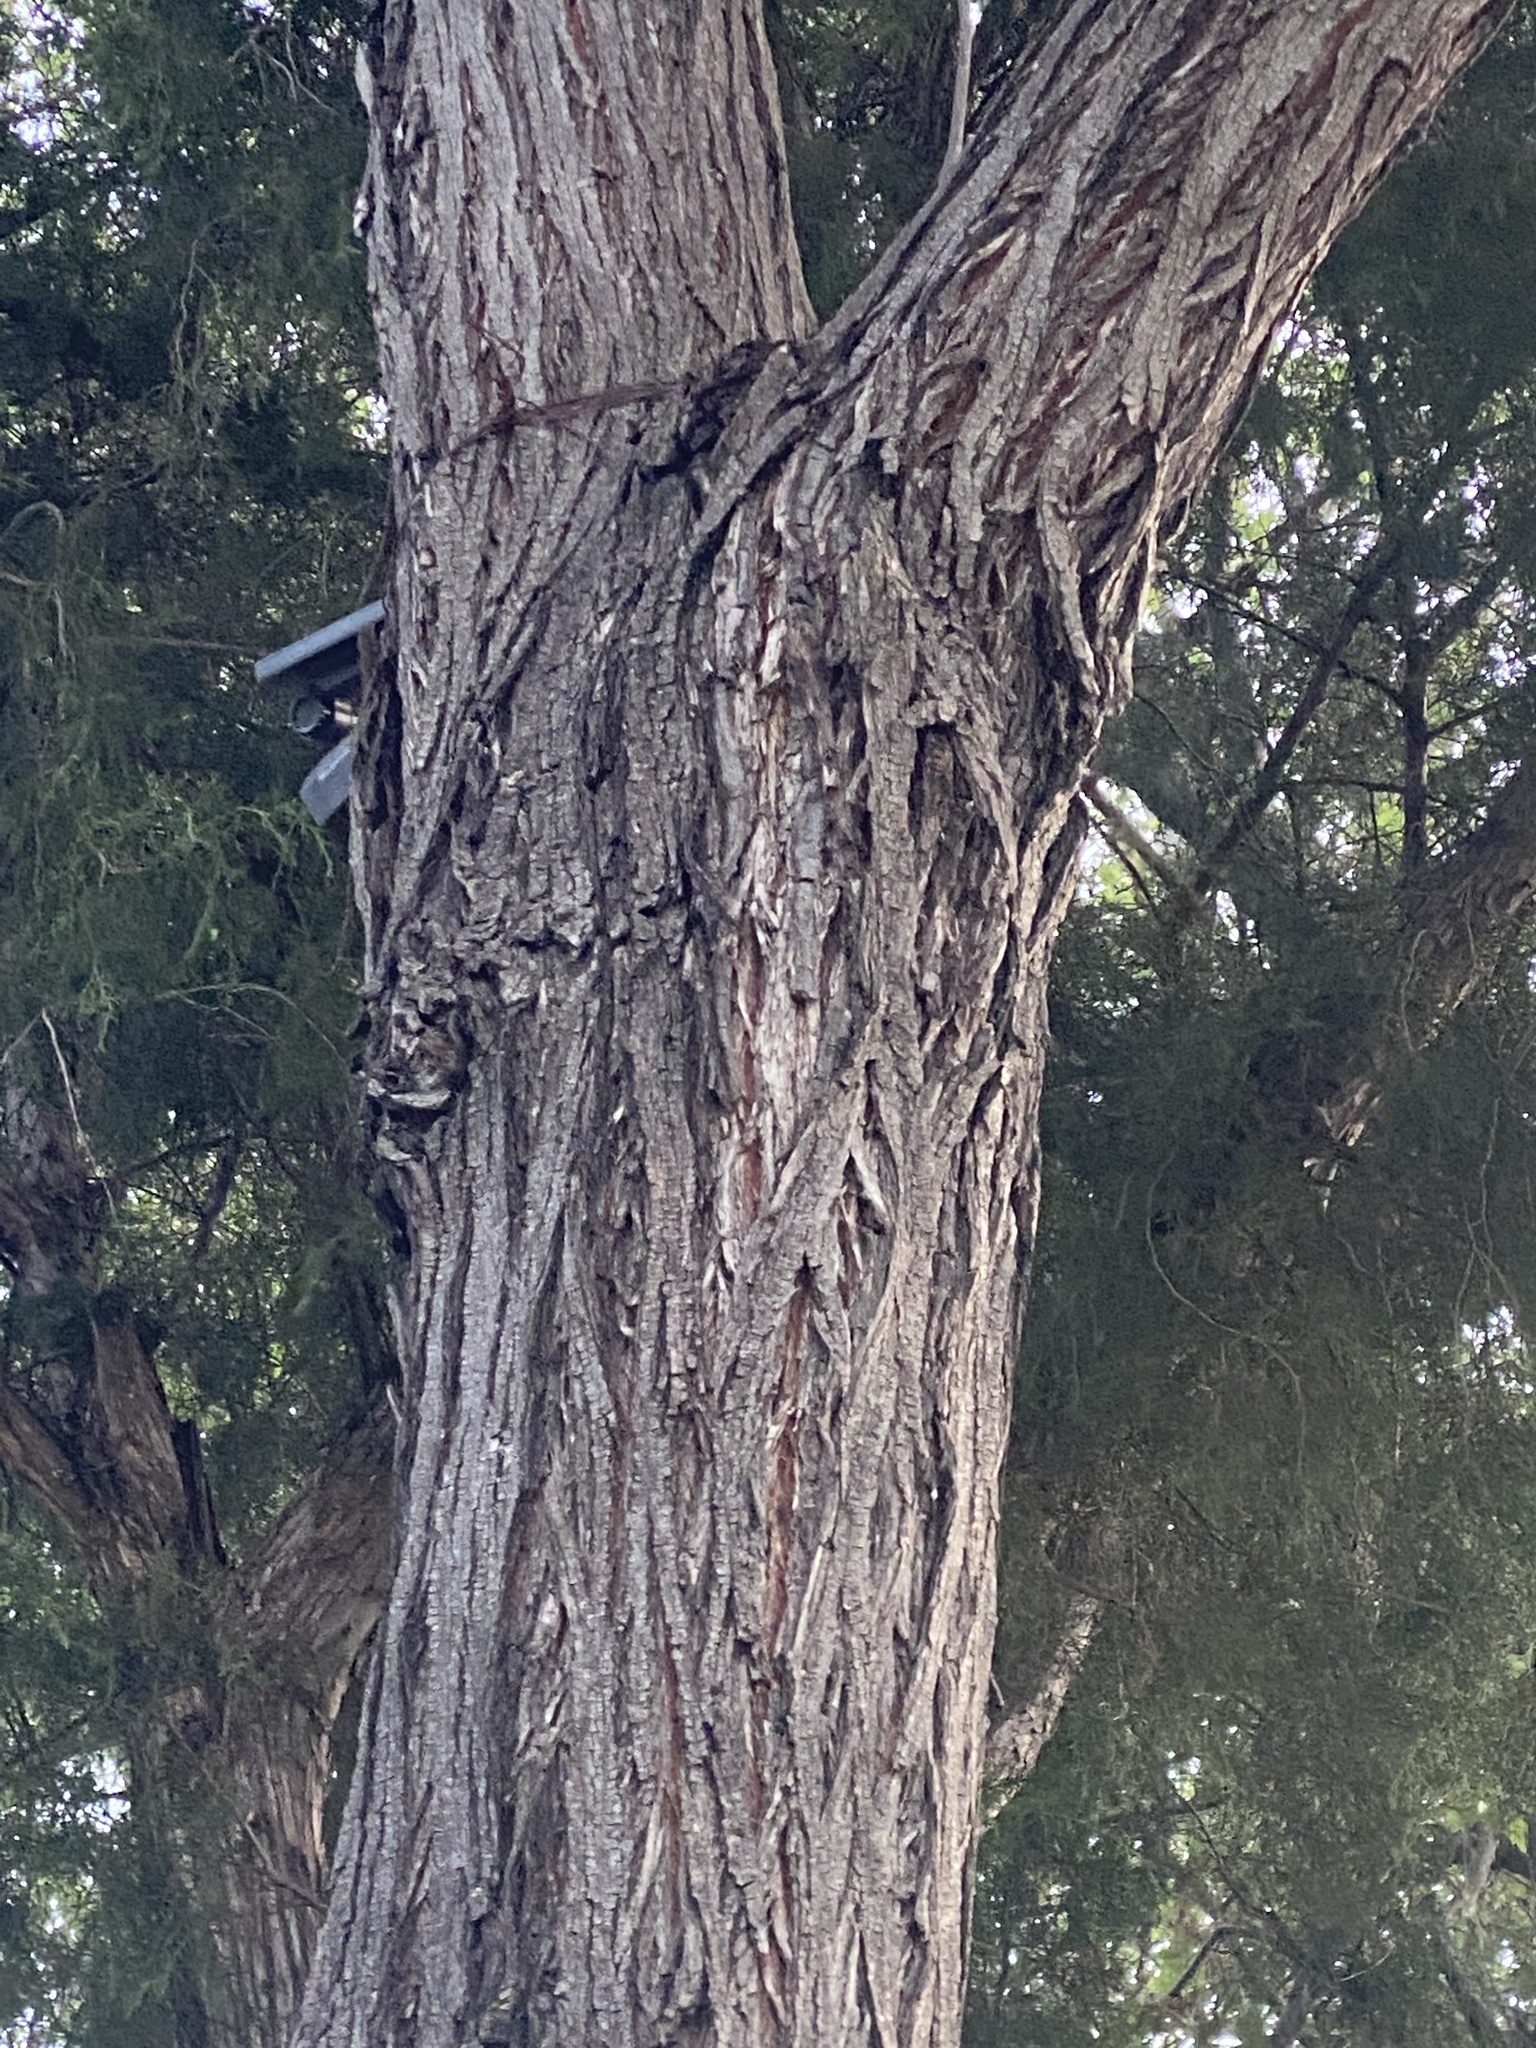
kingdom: Plantae
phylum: Tracheophyta
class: Magnoliopsida
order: Sapindales
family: Meliaceae
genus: Melia
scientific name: Melia azedarach
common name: Chinaberrytree
